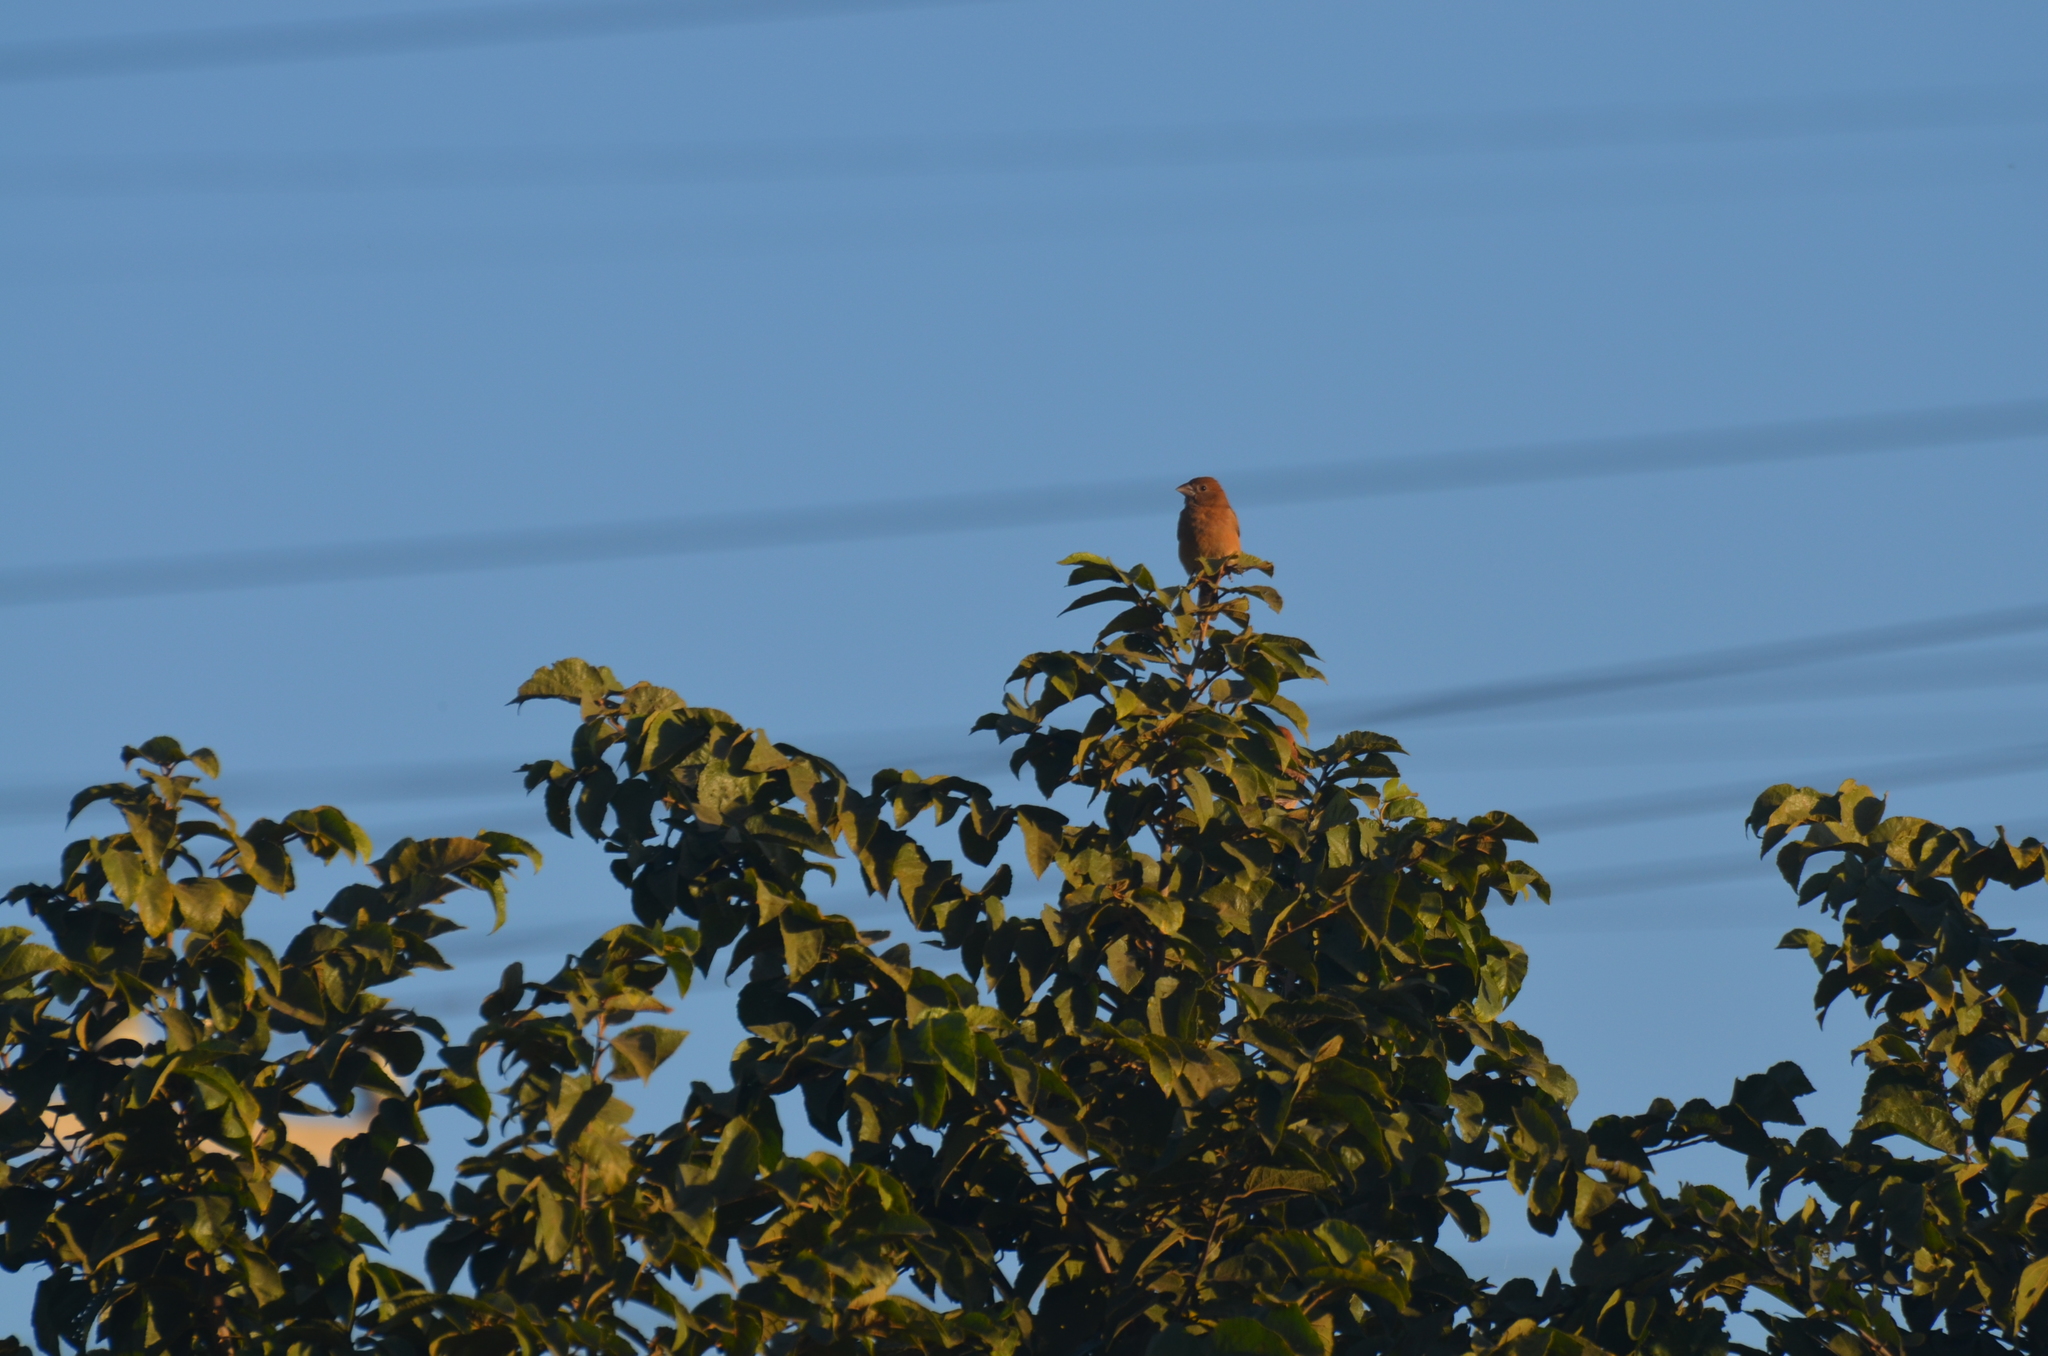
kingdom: Animalia
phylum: Chordata
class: Aves
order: Passeriformes
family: Cardinalidae
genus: Passerina
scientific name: Passerina caerulea
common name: Blue grosbeak
